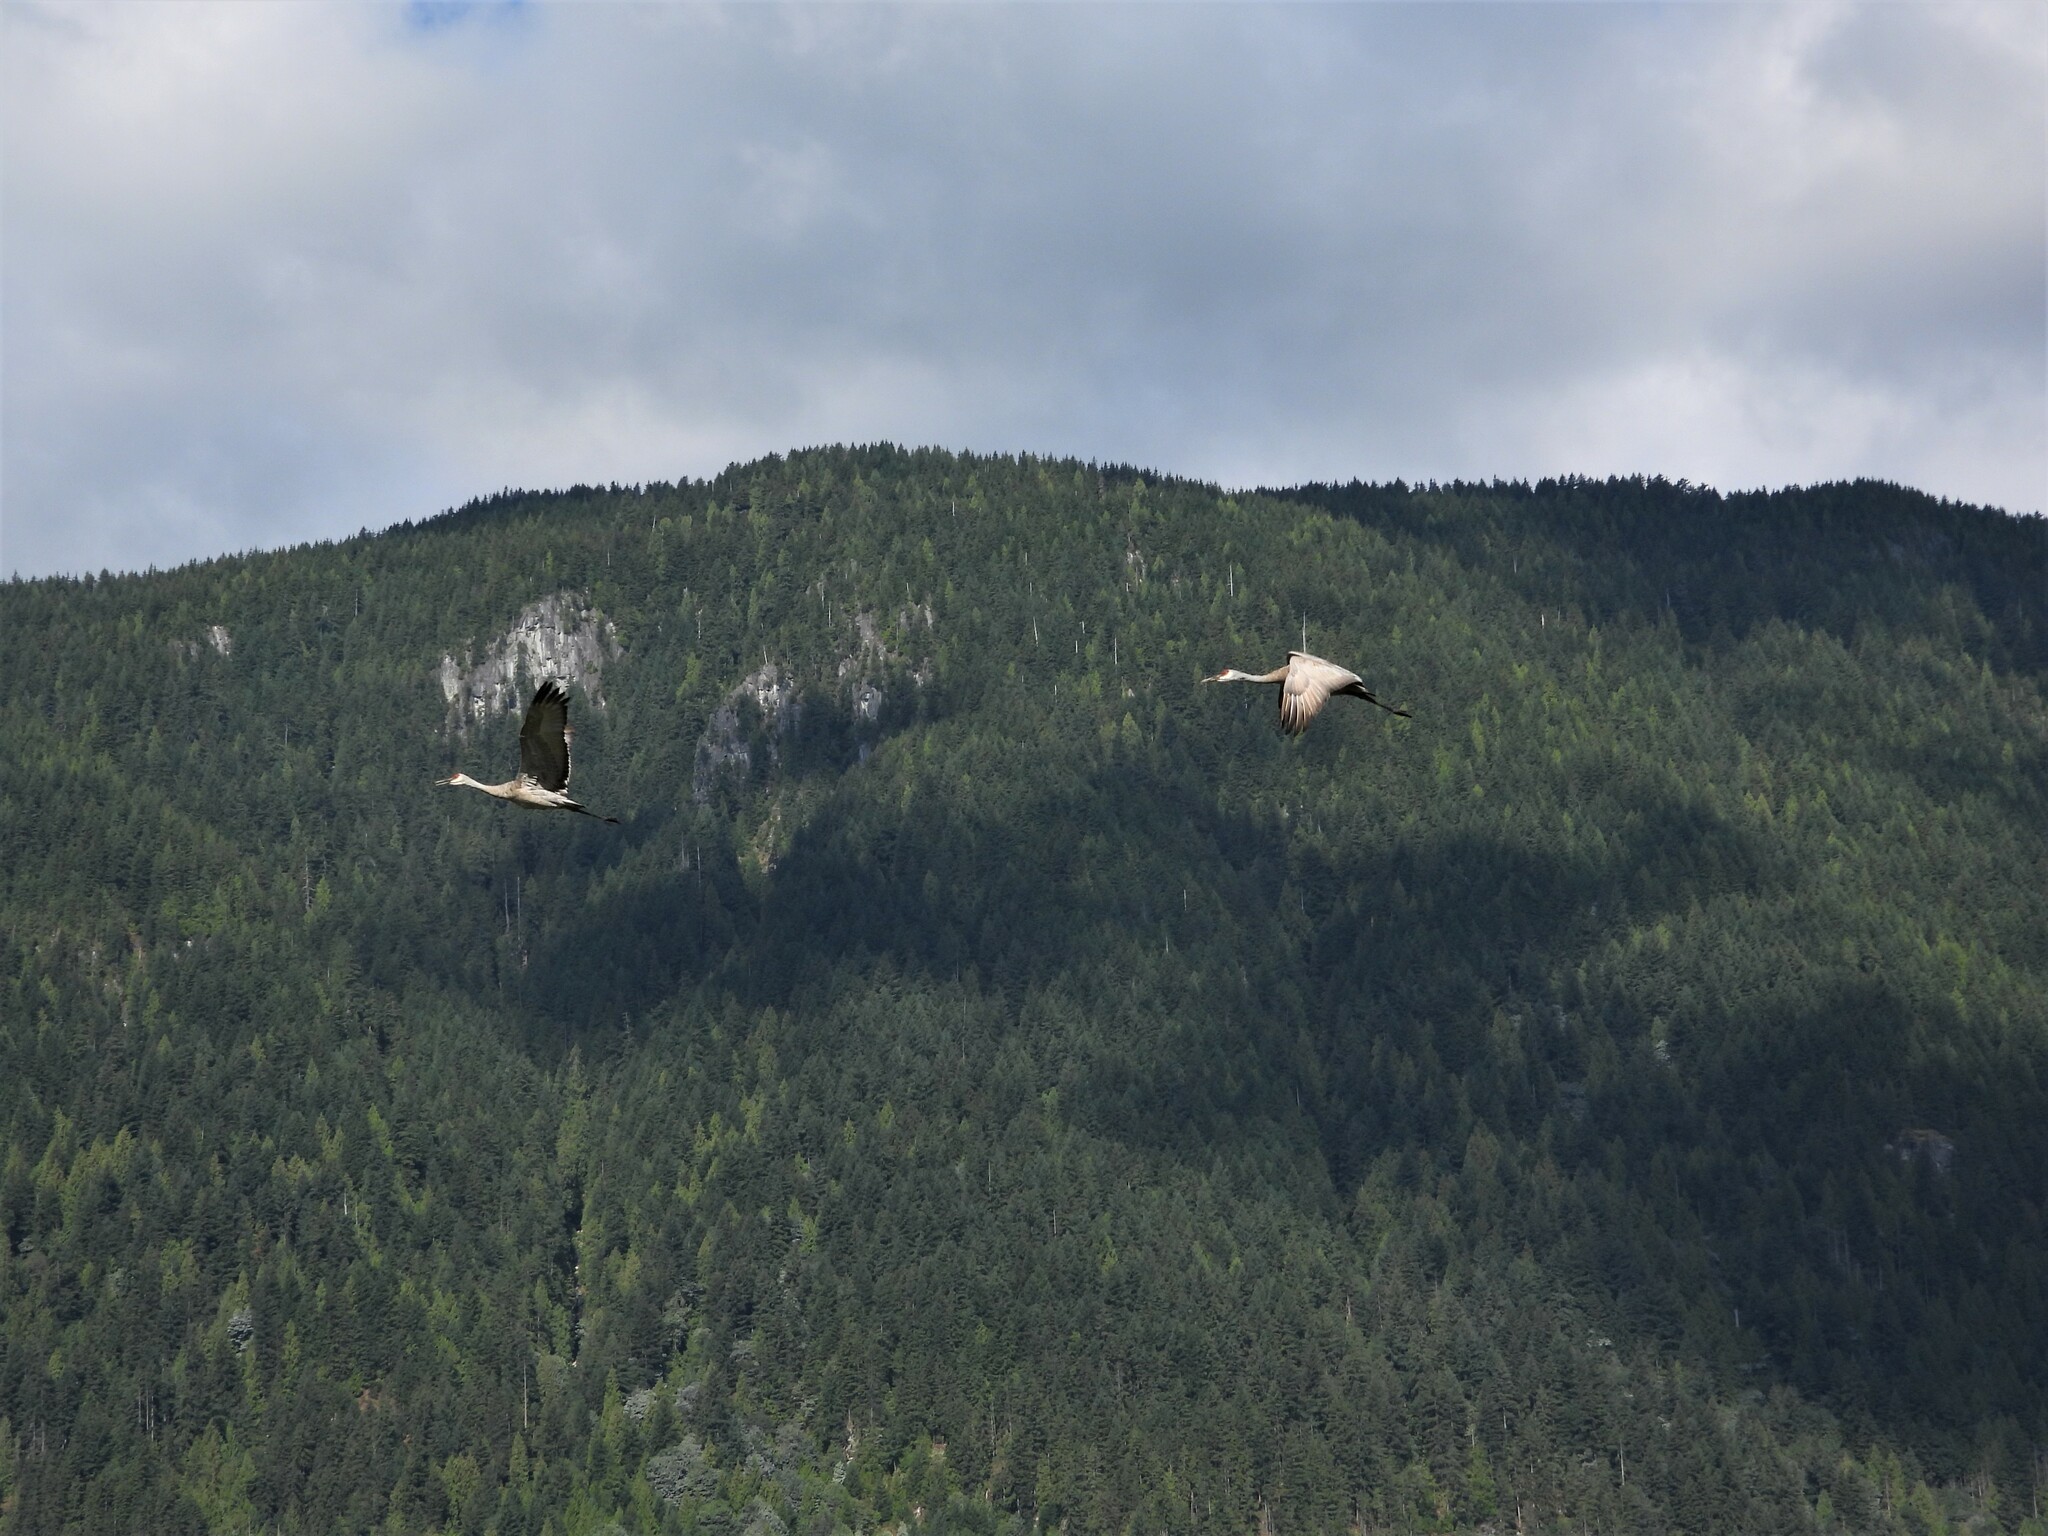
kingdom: Animalia
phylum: Chordata
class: Aves
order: Gruiformes
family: Gruidae
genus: Grus
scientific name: Grus canadensis
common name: Sandhill crane
